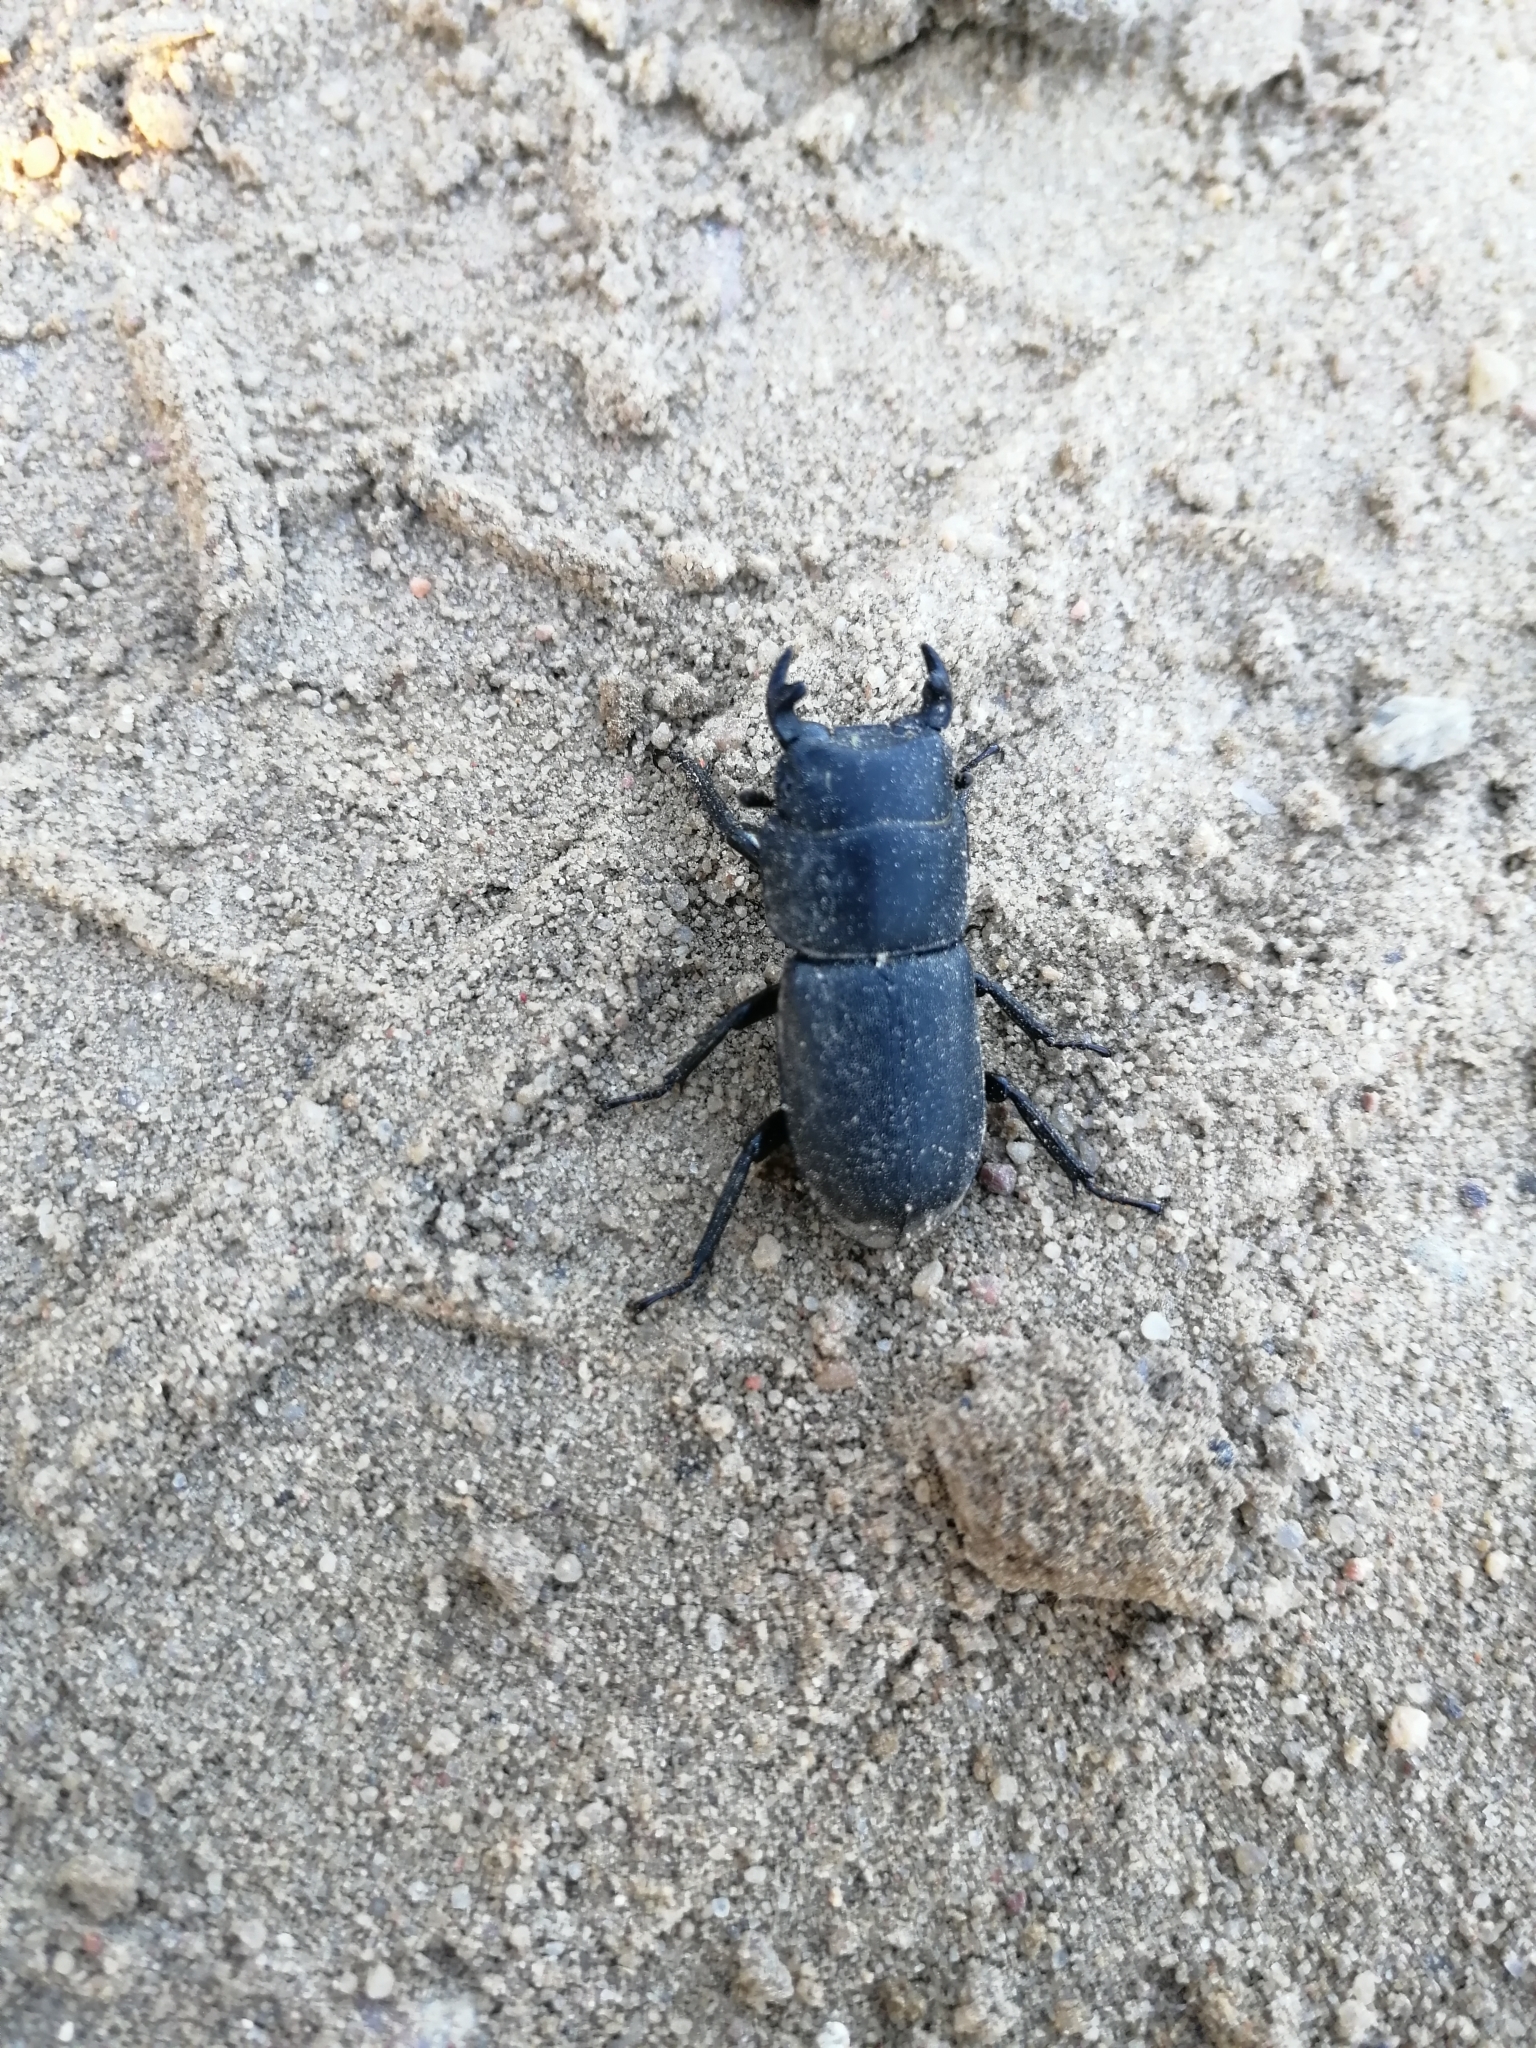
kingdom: Animalia
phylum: Arthropoda
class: Insecta
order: Coleoptera
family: Lucanidae
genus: Dorcus
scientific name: Dorcus parallelipipedus
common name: Lesser stag beetle
